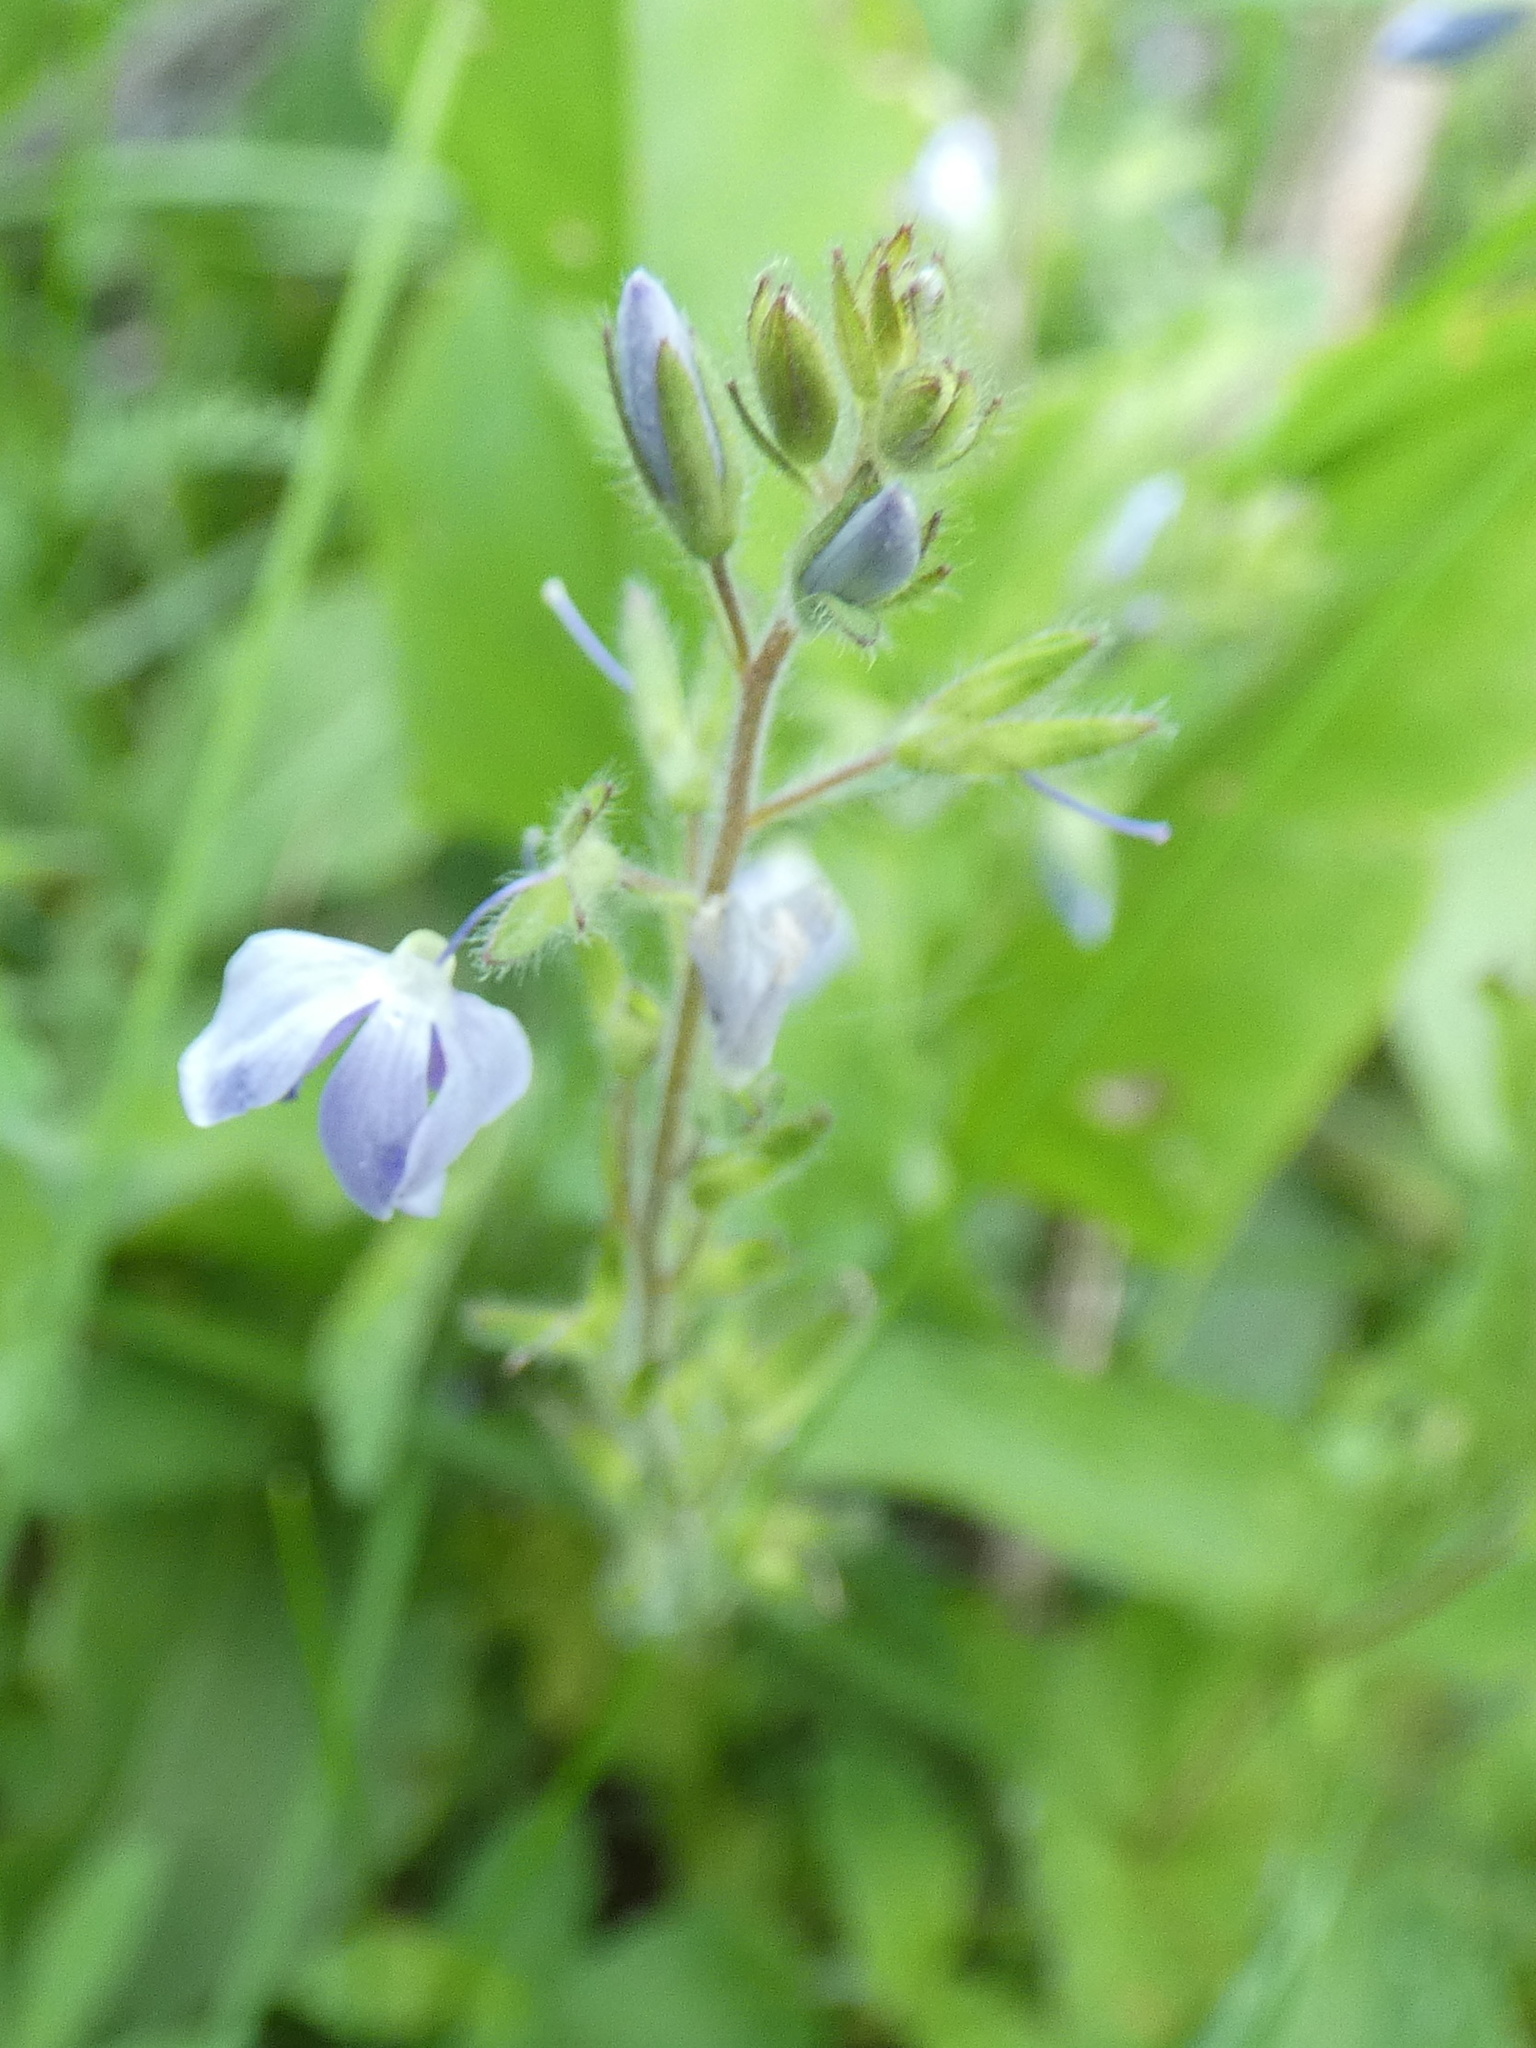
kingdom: Plantae
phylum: Tracheophyta
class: Magnoliopsida
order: Lamiales
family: Plantaginaceae
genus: Veronica
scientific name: Veronica chamaedrys
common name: Germander speedwell
